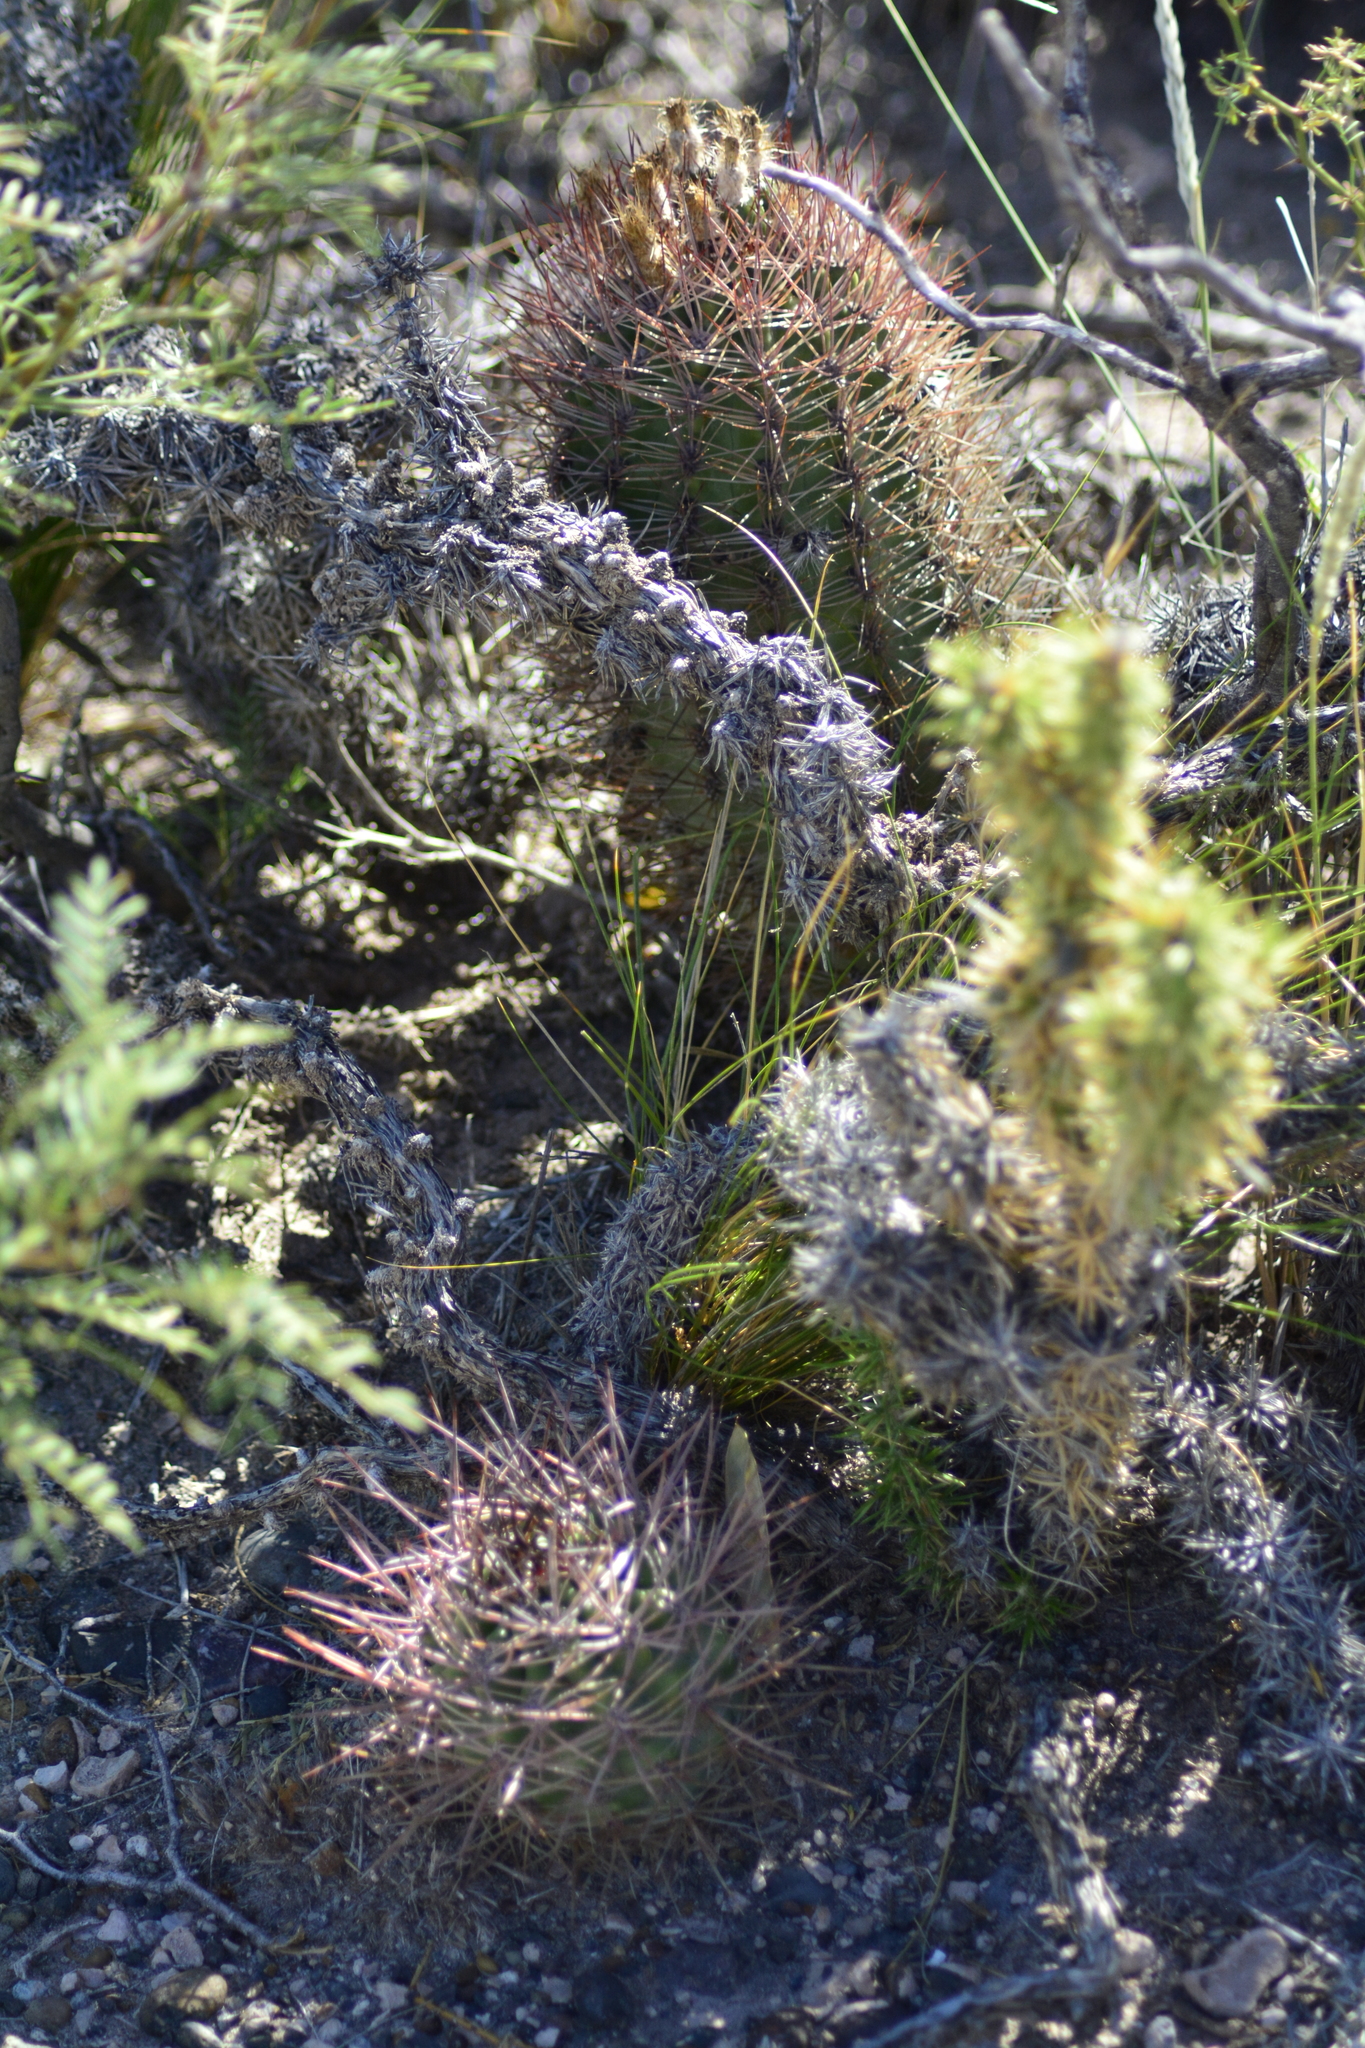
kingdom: Plantae
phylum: Tracheophyta
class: Magnoliopsida
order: Caryophyllales
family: Cactaceae
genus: Eriosyce
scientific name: Eriosyce strausiana
